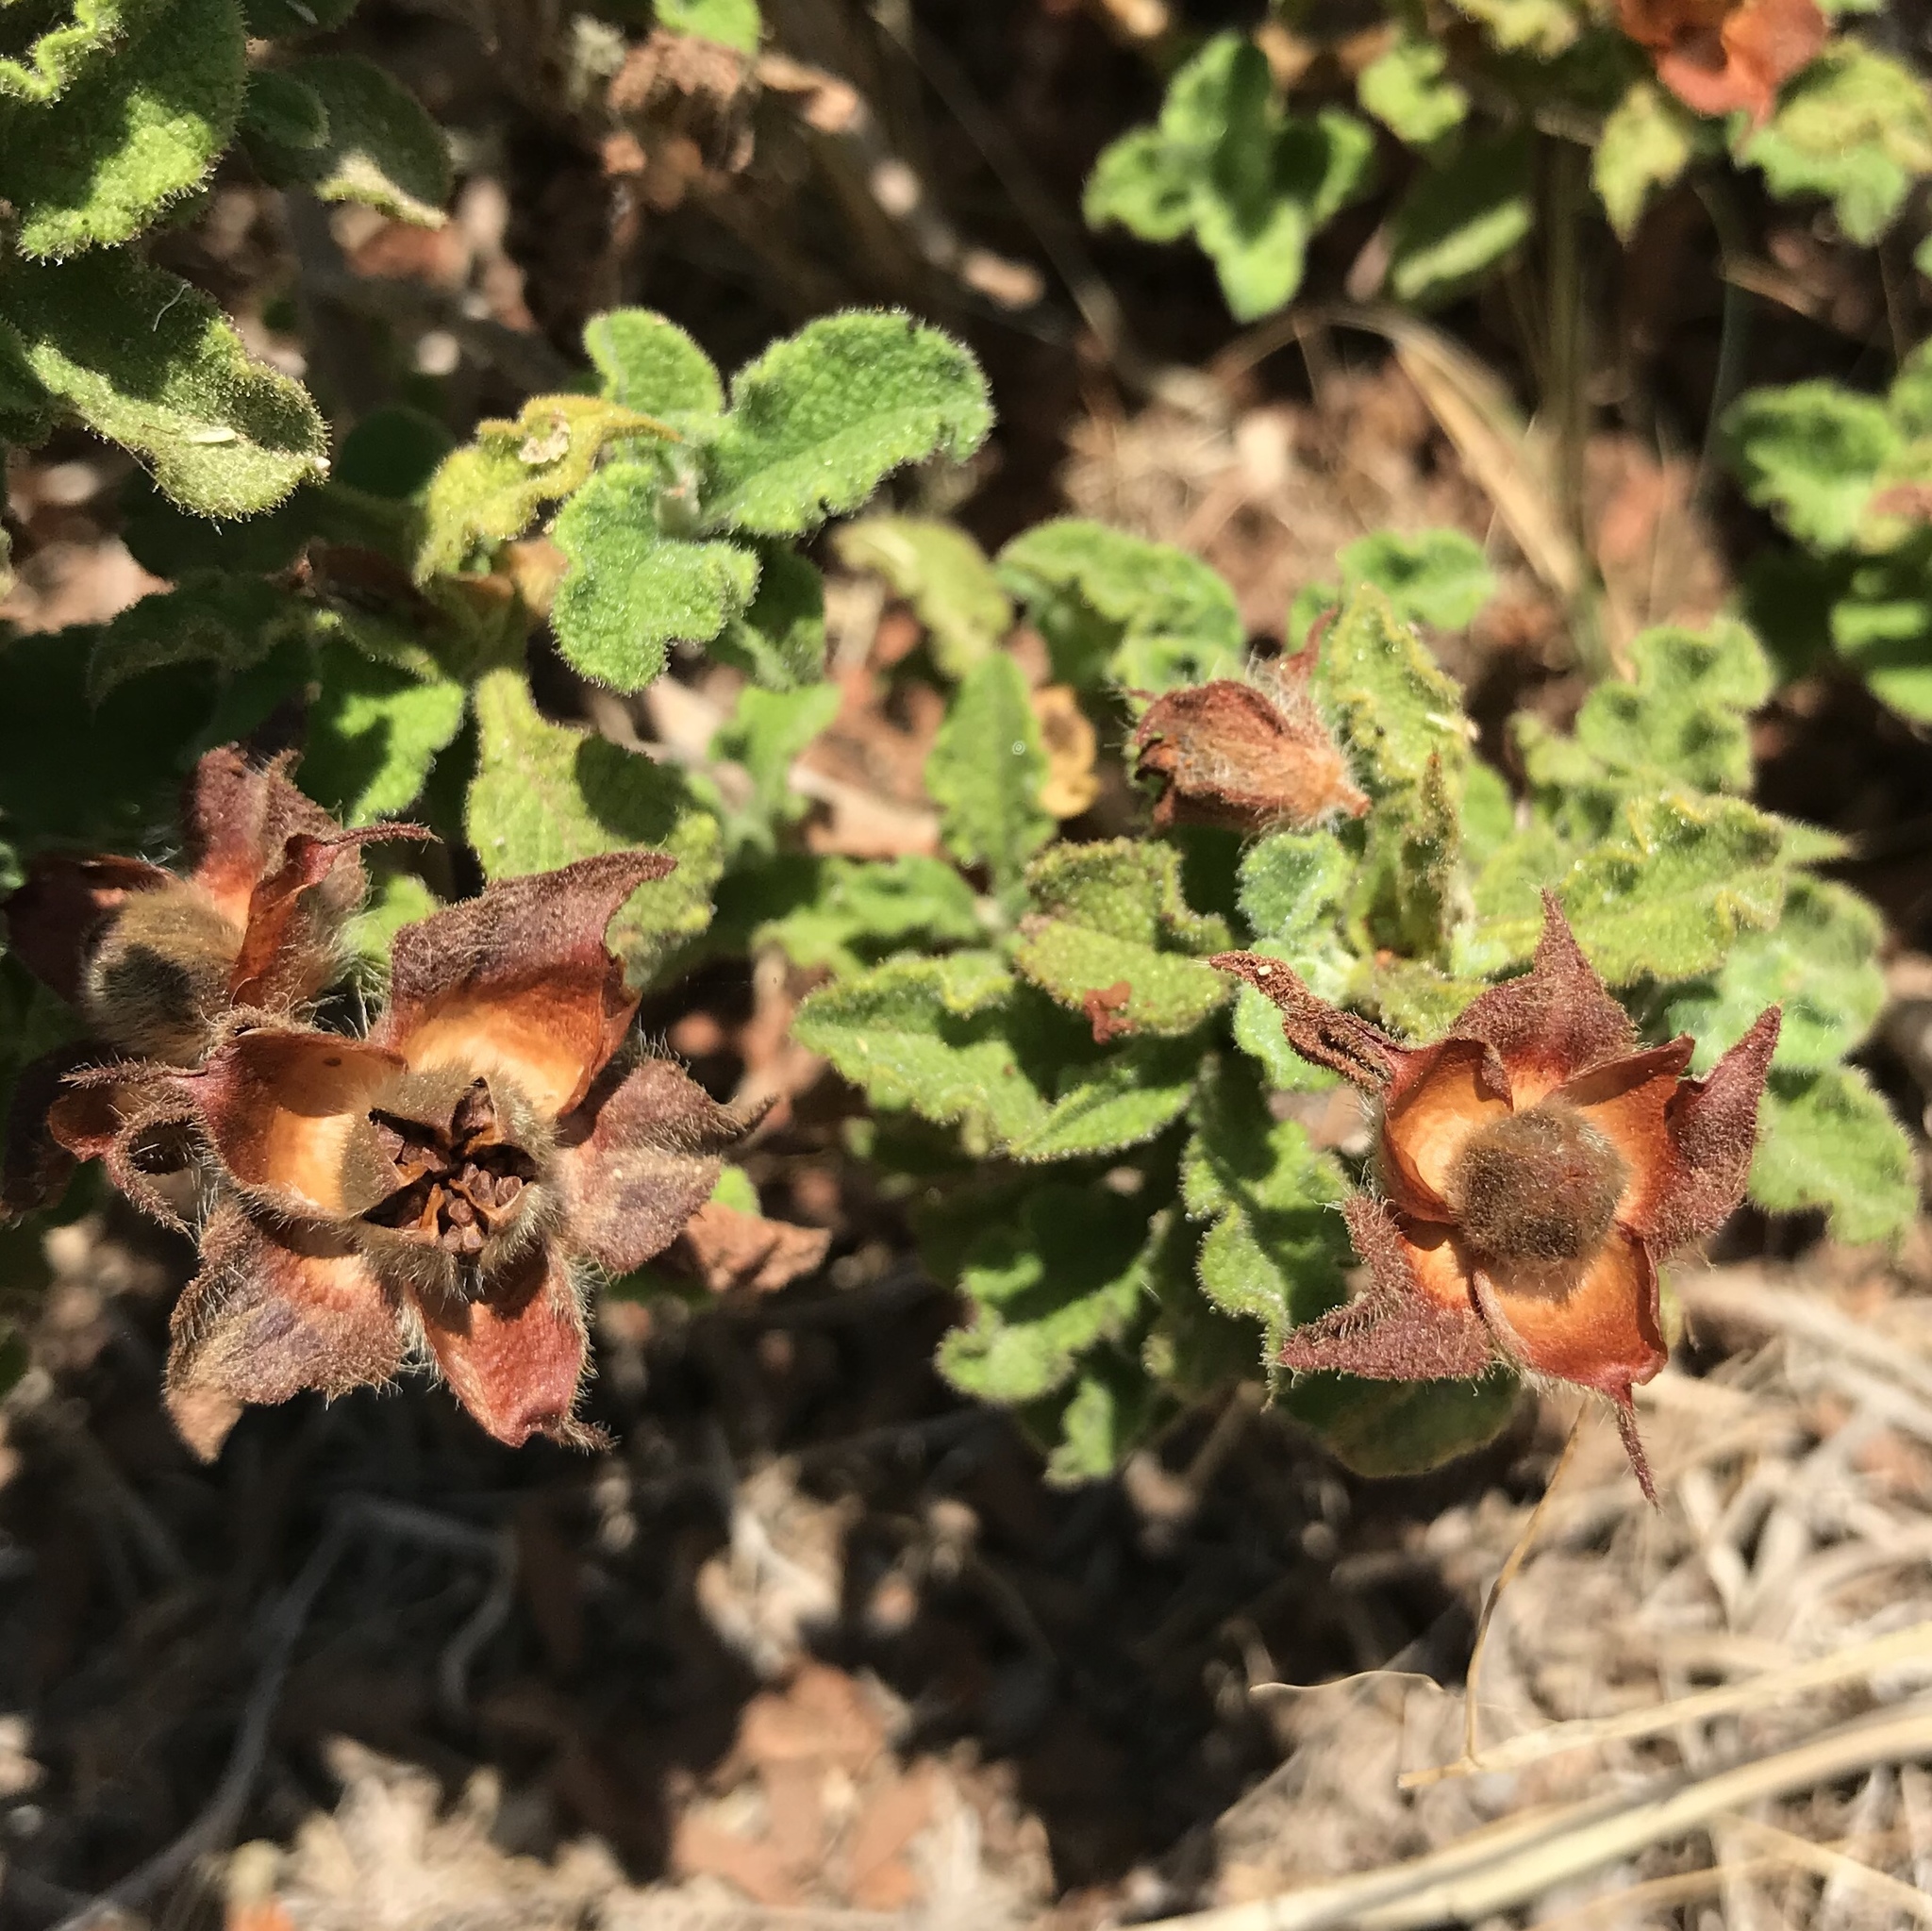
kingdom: Plantae
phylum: Tracheophyta
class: Magnoliopsida
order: Malvales
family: Cistaceae
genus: Cistus
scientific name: Cistus creticus
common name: Cretan rockrose
